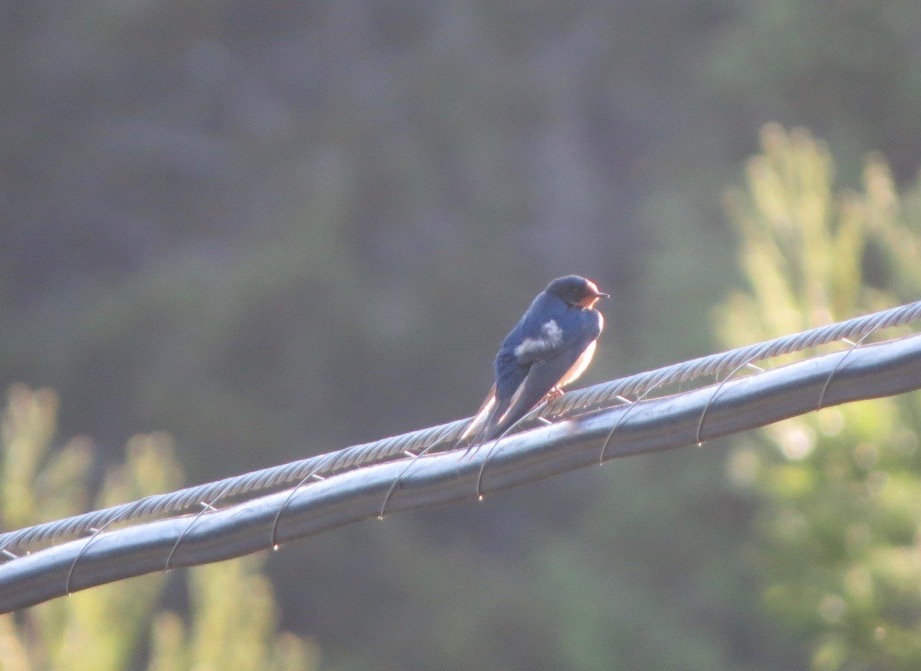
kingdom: Animalia
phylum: Chordata
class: Aves
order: Passeriformes
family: Hirundinidae
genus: Hirundo
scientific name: Hirundo rustica
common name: Barn swallow
